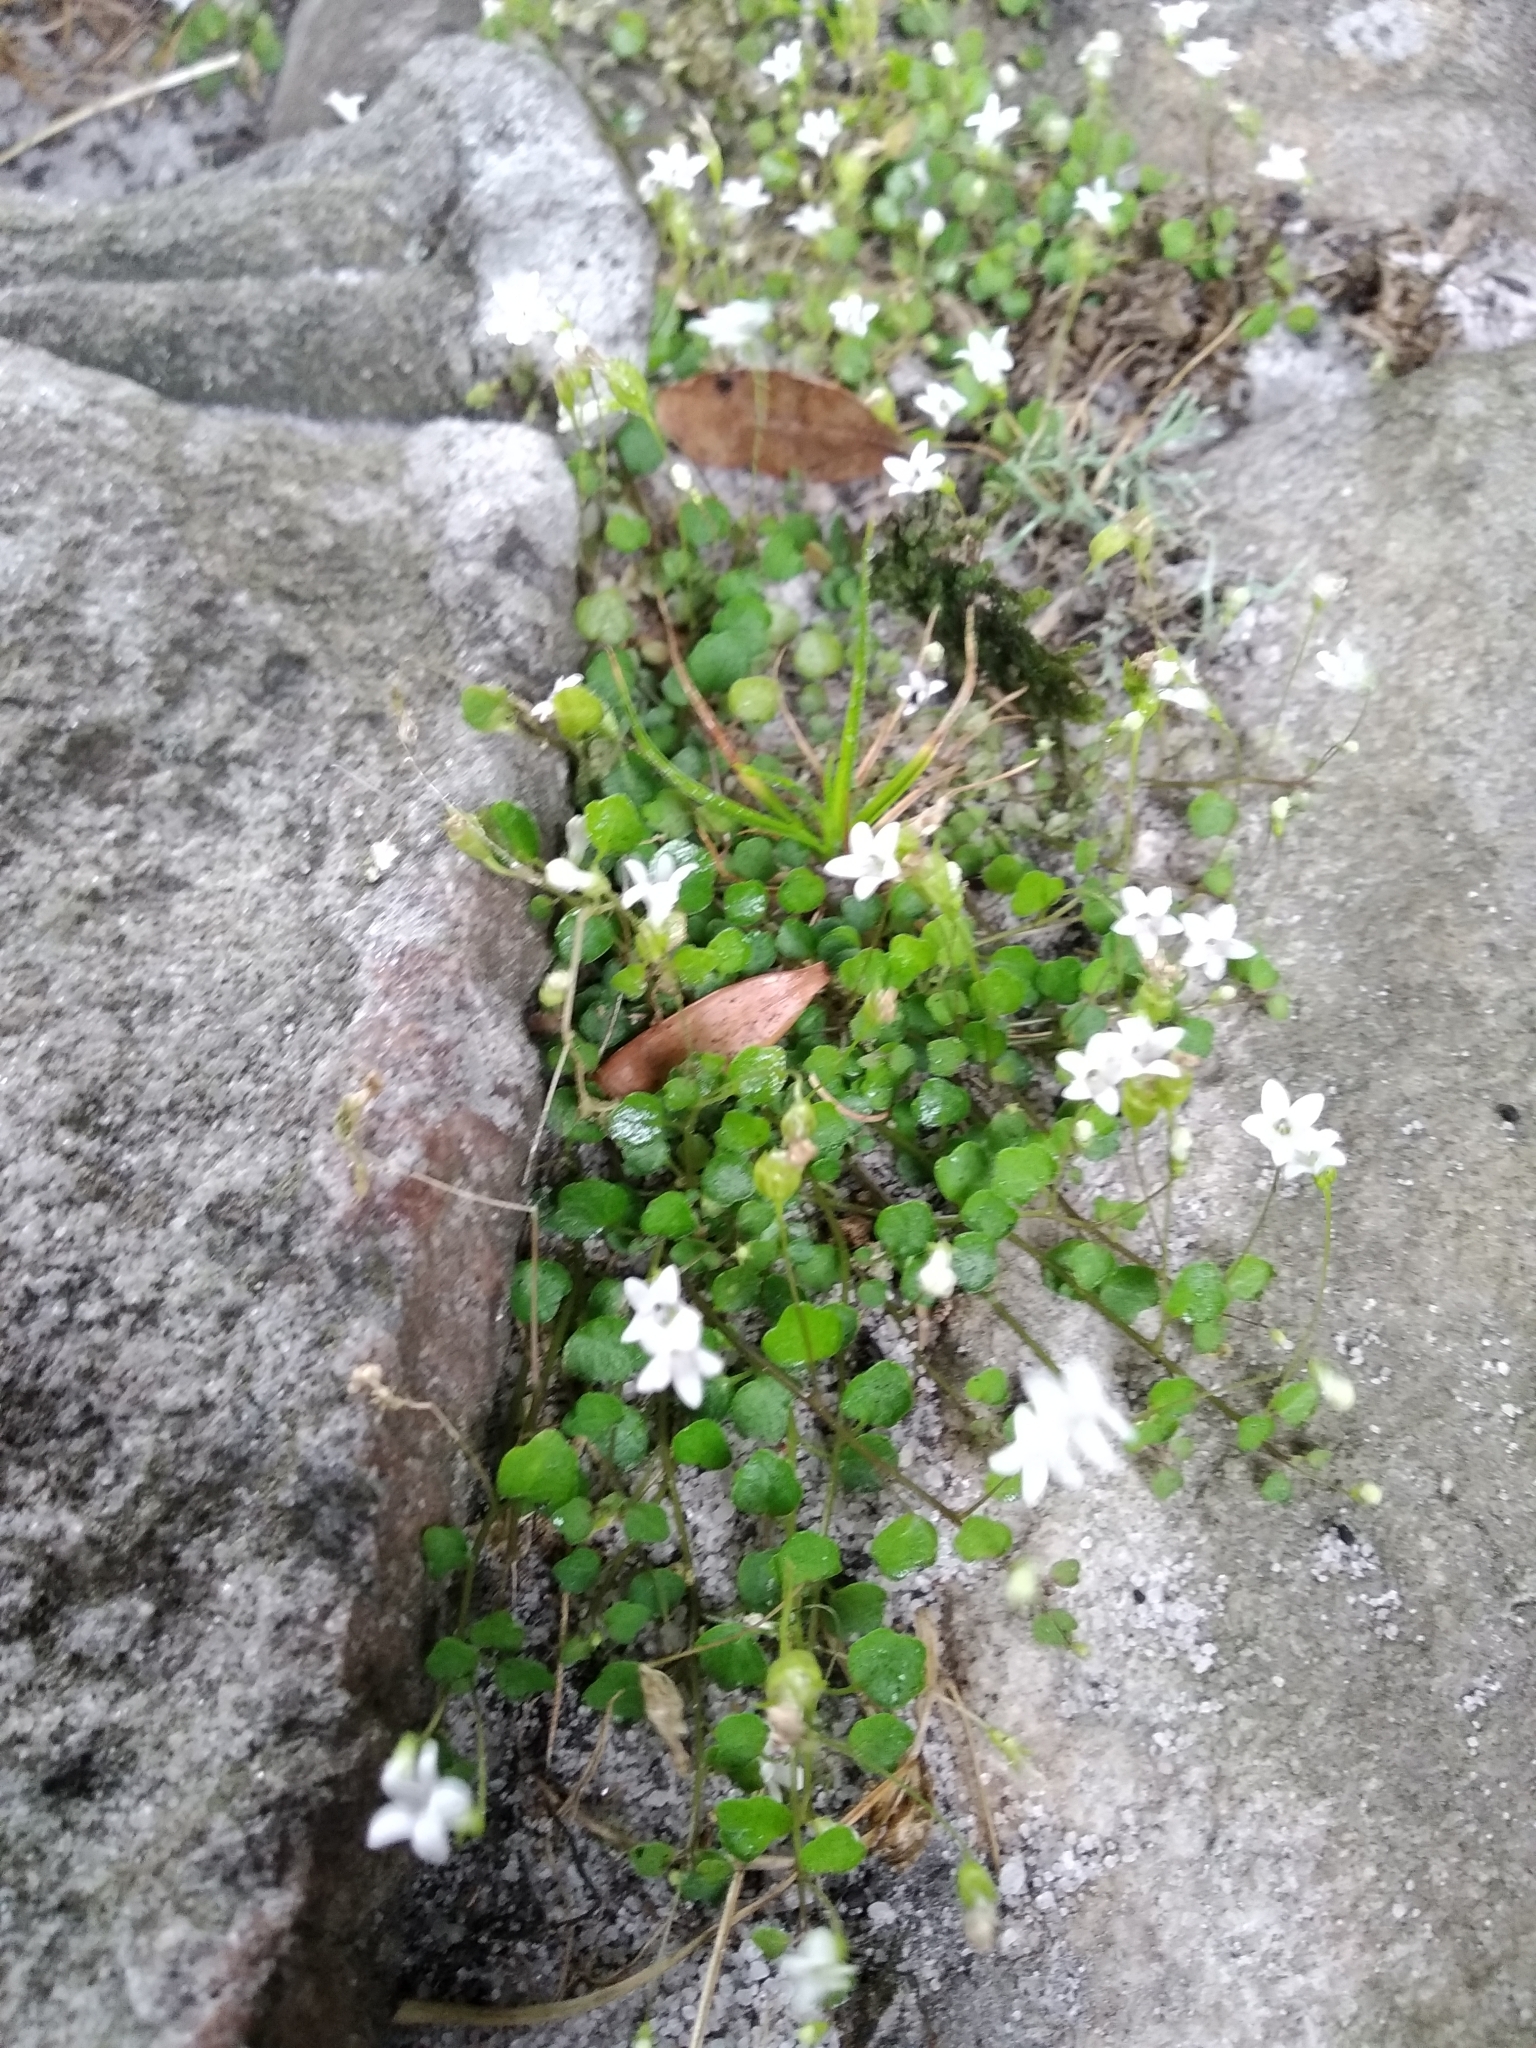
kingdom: Plantae
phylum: Tracheophyta
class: Magnoliopsida
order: Asterales
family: Campanulaceae
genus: Wimmerella
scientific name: Wimmerella pygmaea
